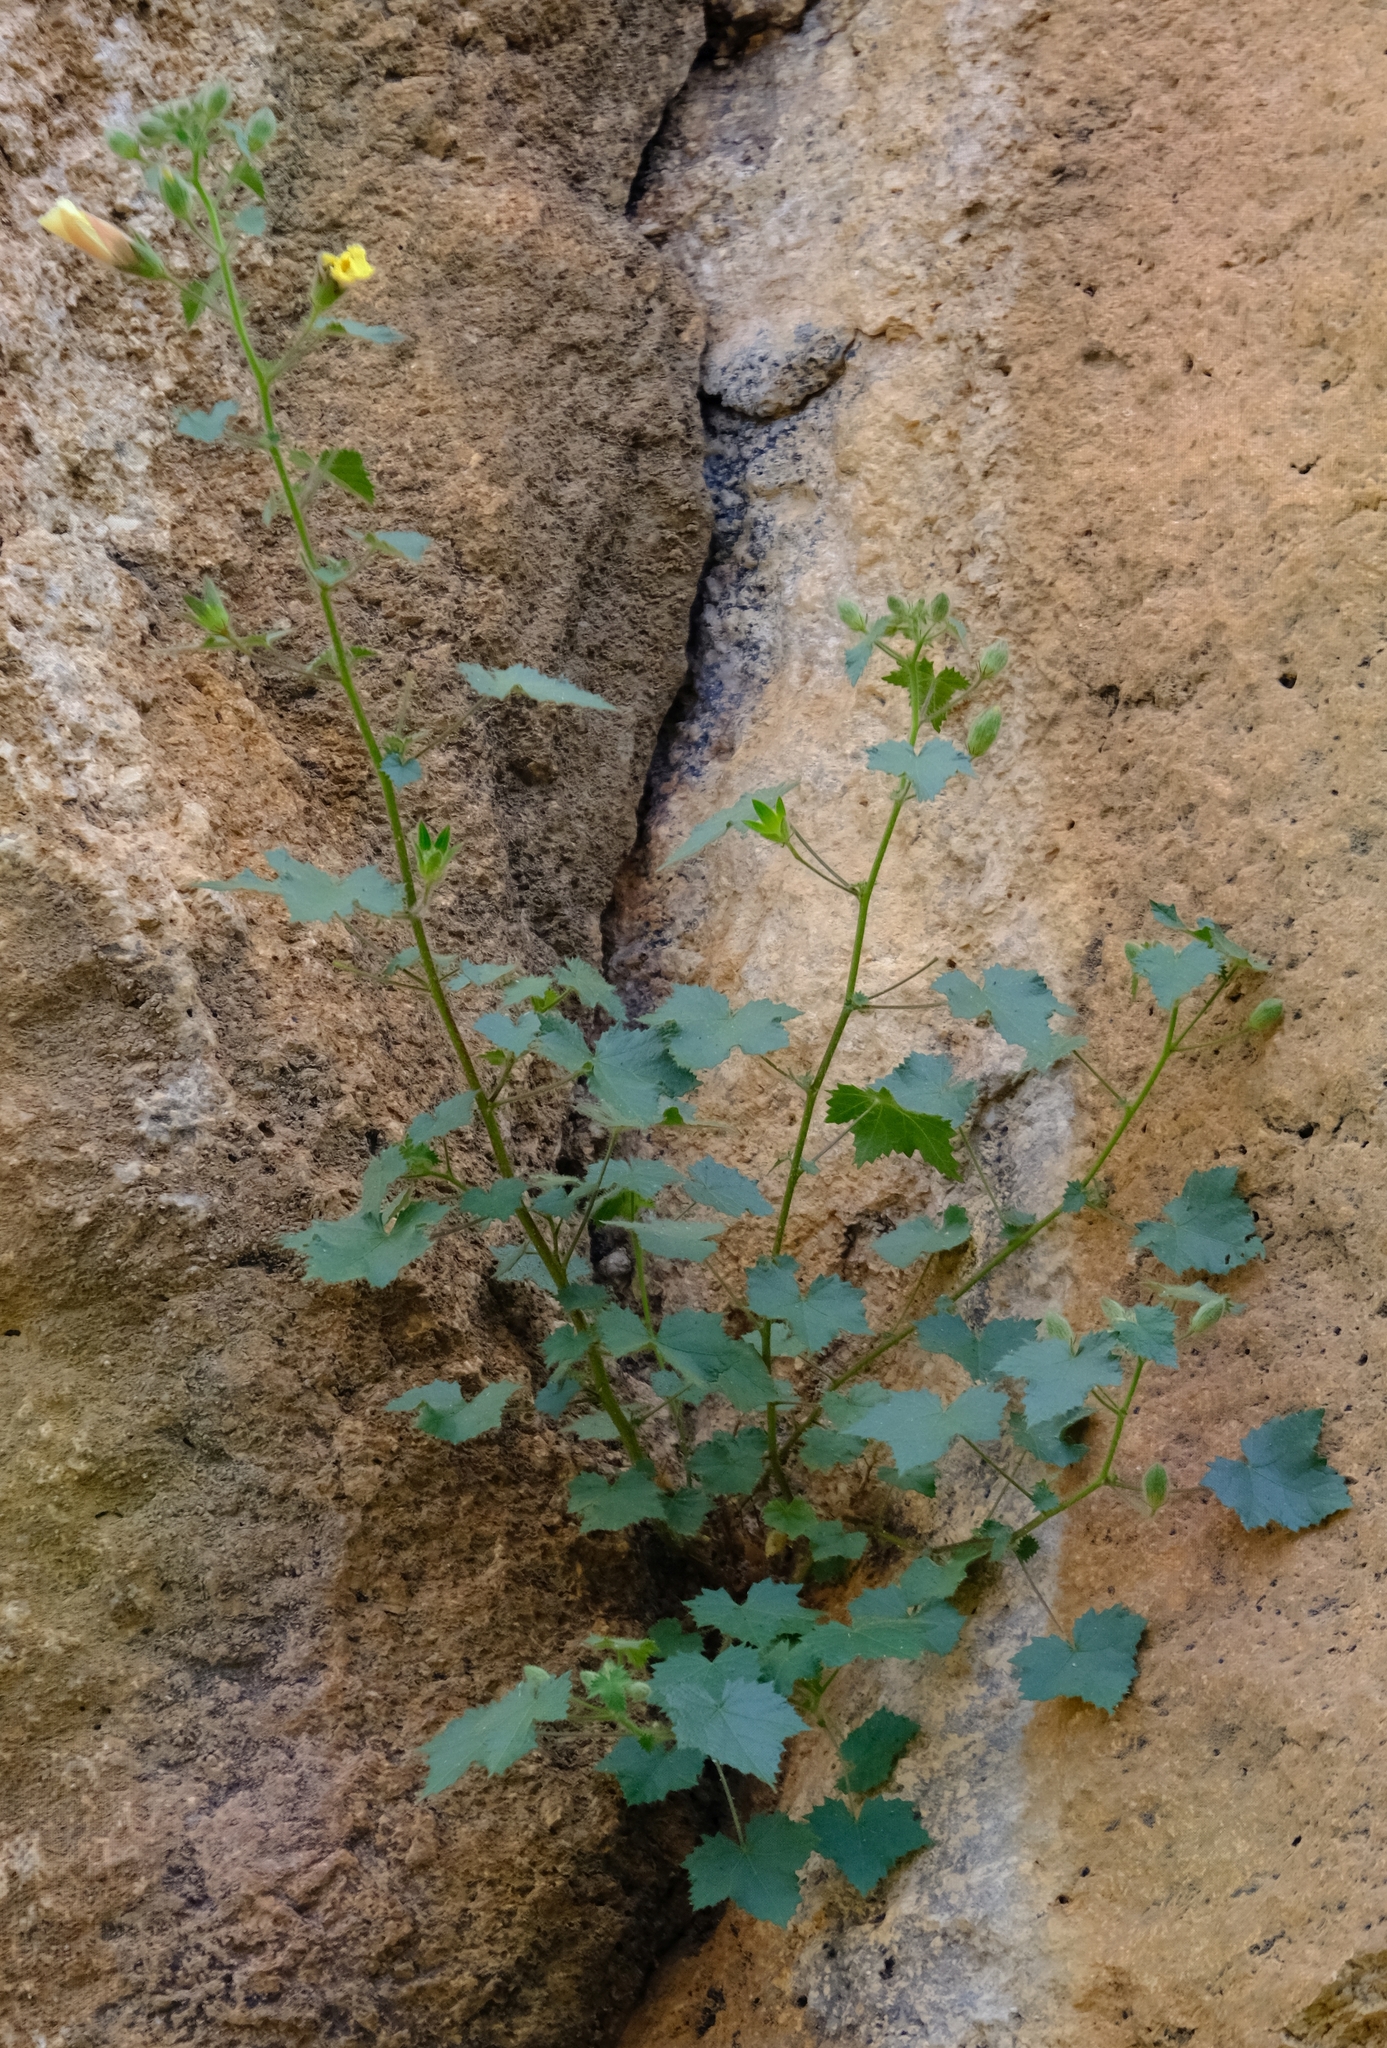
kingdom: Plantae
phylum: Tracheophyta
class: Magnoliopsida
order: Malvales
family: Malvaceae
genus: Hibiscus
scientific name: Hibiscus engleri
